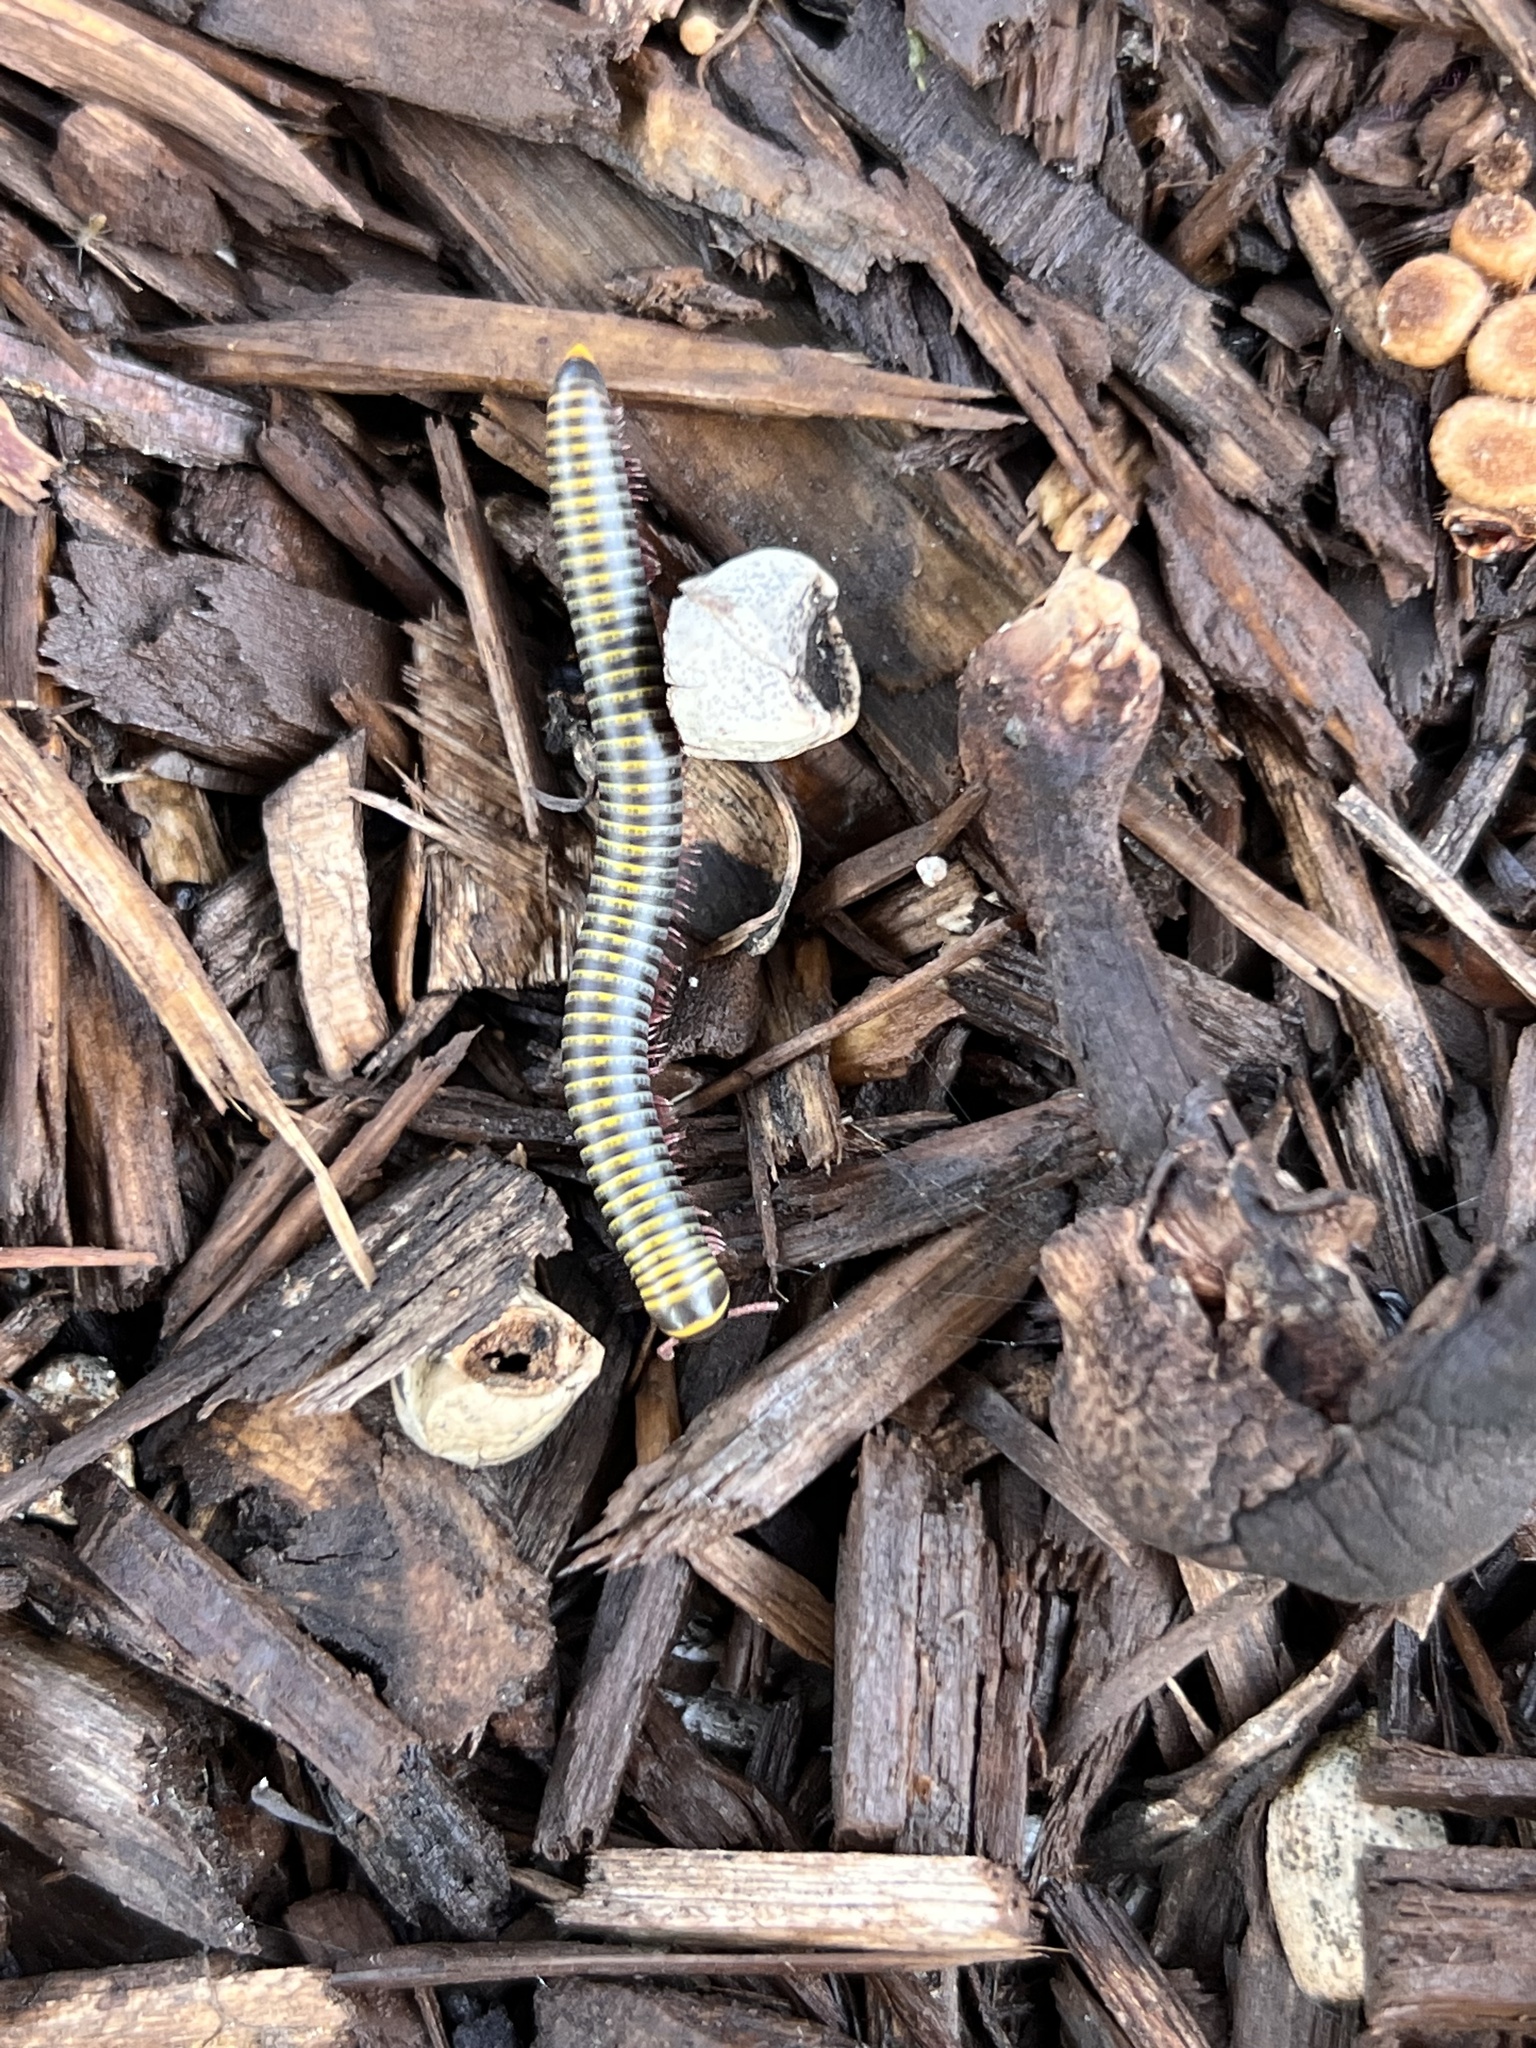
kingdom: Animalia
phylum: Arthropoda
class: Diplopoda
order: Spirobolida
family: Rhinocricidae
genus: Anadenobolus
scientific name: Anadenobolus monilicornis
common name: Caribbean millipede
